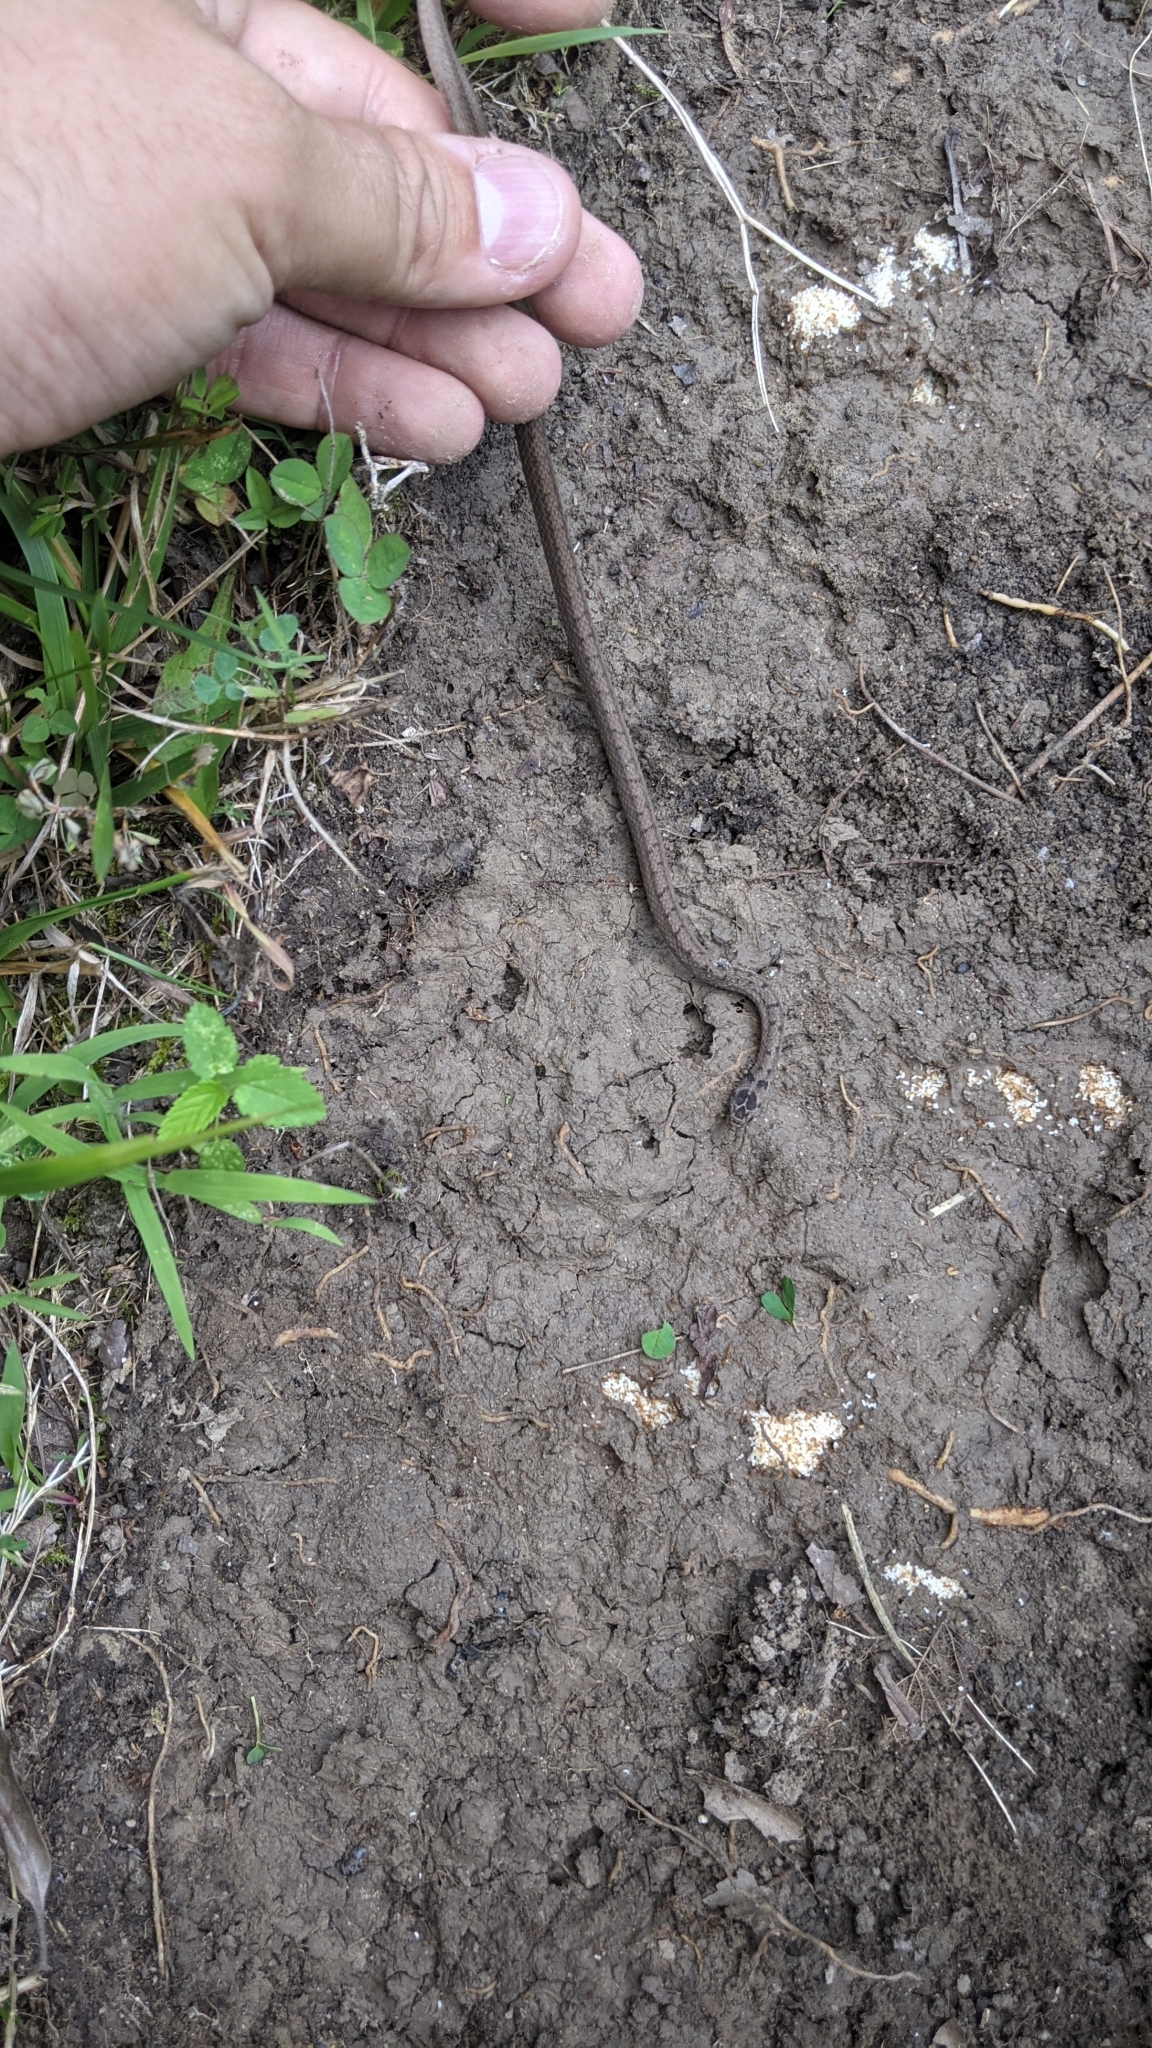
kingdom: Animalia
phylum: Chordata
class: Squamata
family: Colubridae
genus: Storeria
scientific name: Storeria dekayi
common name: (dekay’s) brown snake
